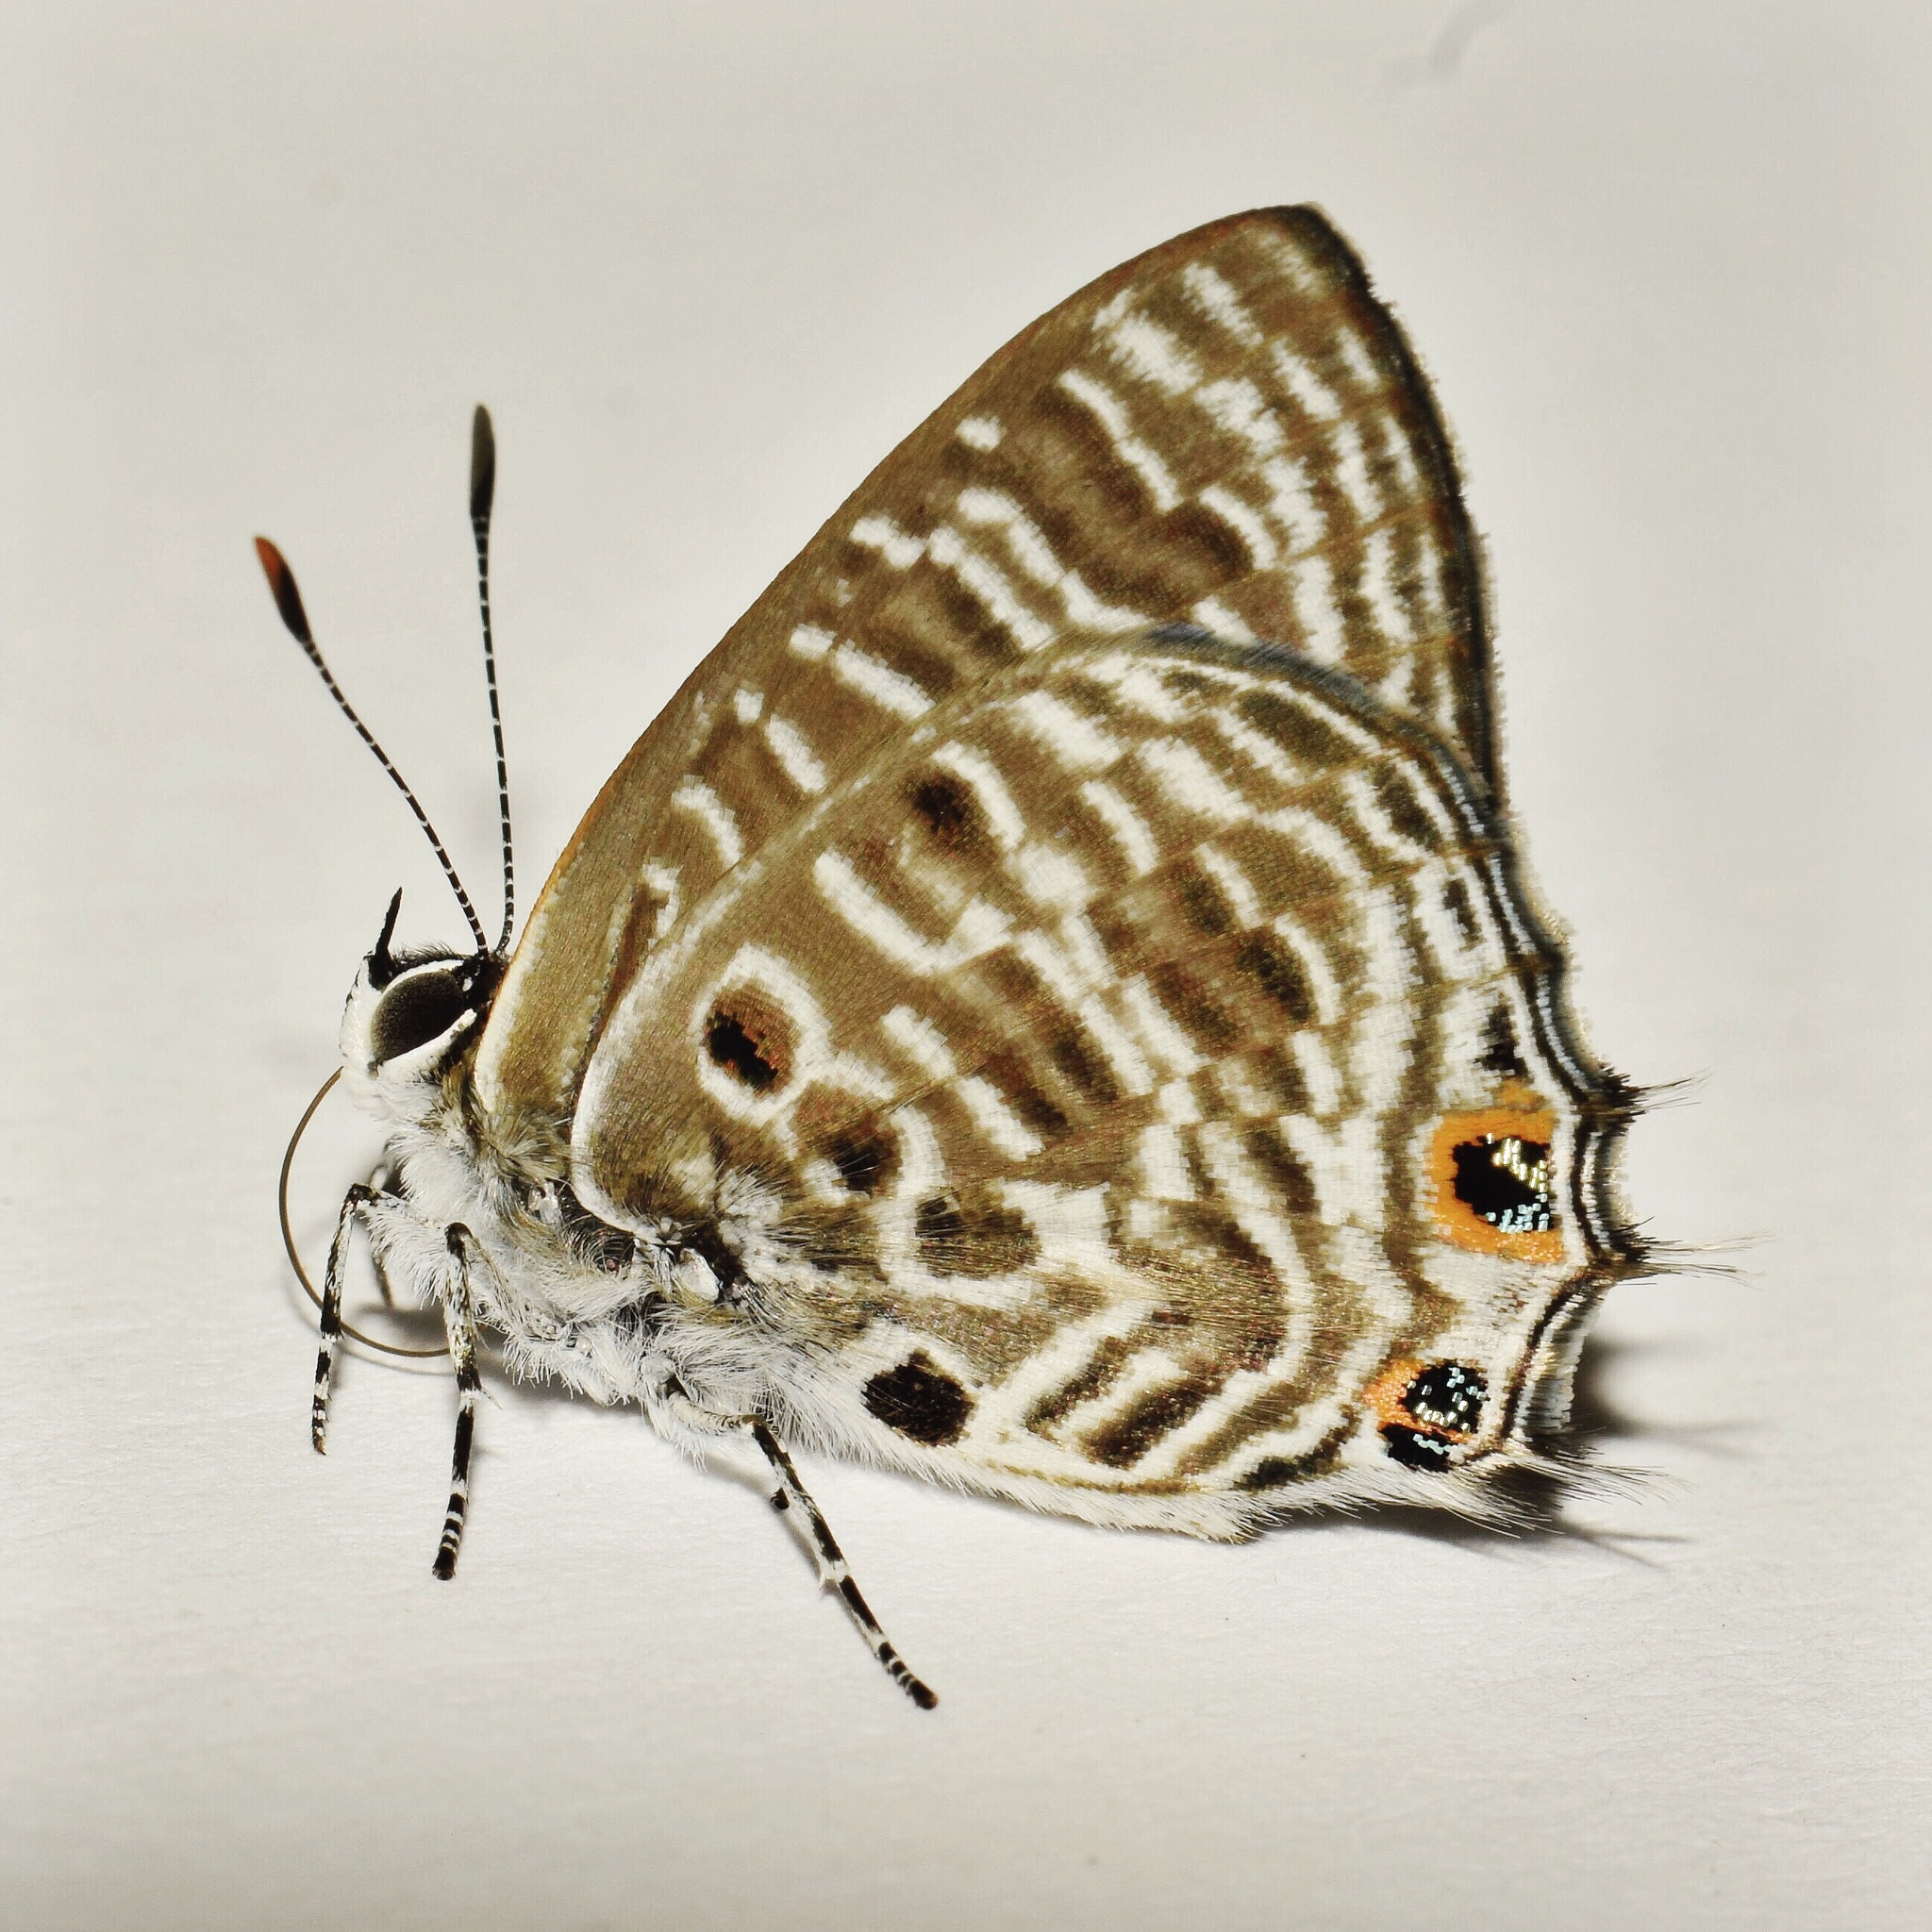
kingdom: Animalia
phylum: Arthropoda
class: Insecta
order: Lepidoptera
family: Lycaenidae
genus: Anthene
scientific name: Anthene larydas
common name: Forest hairtail
